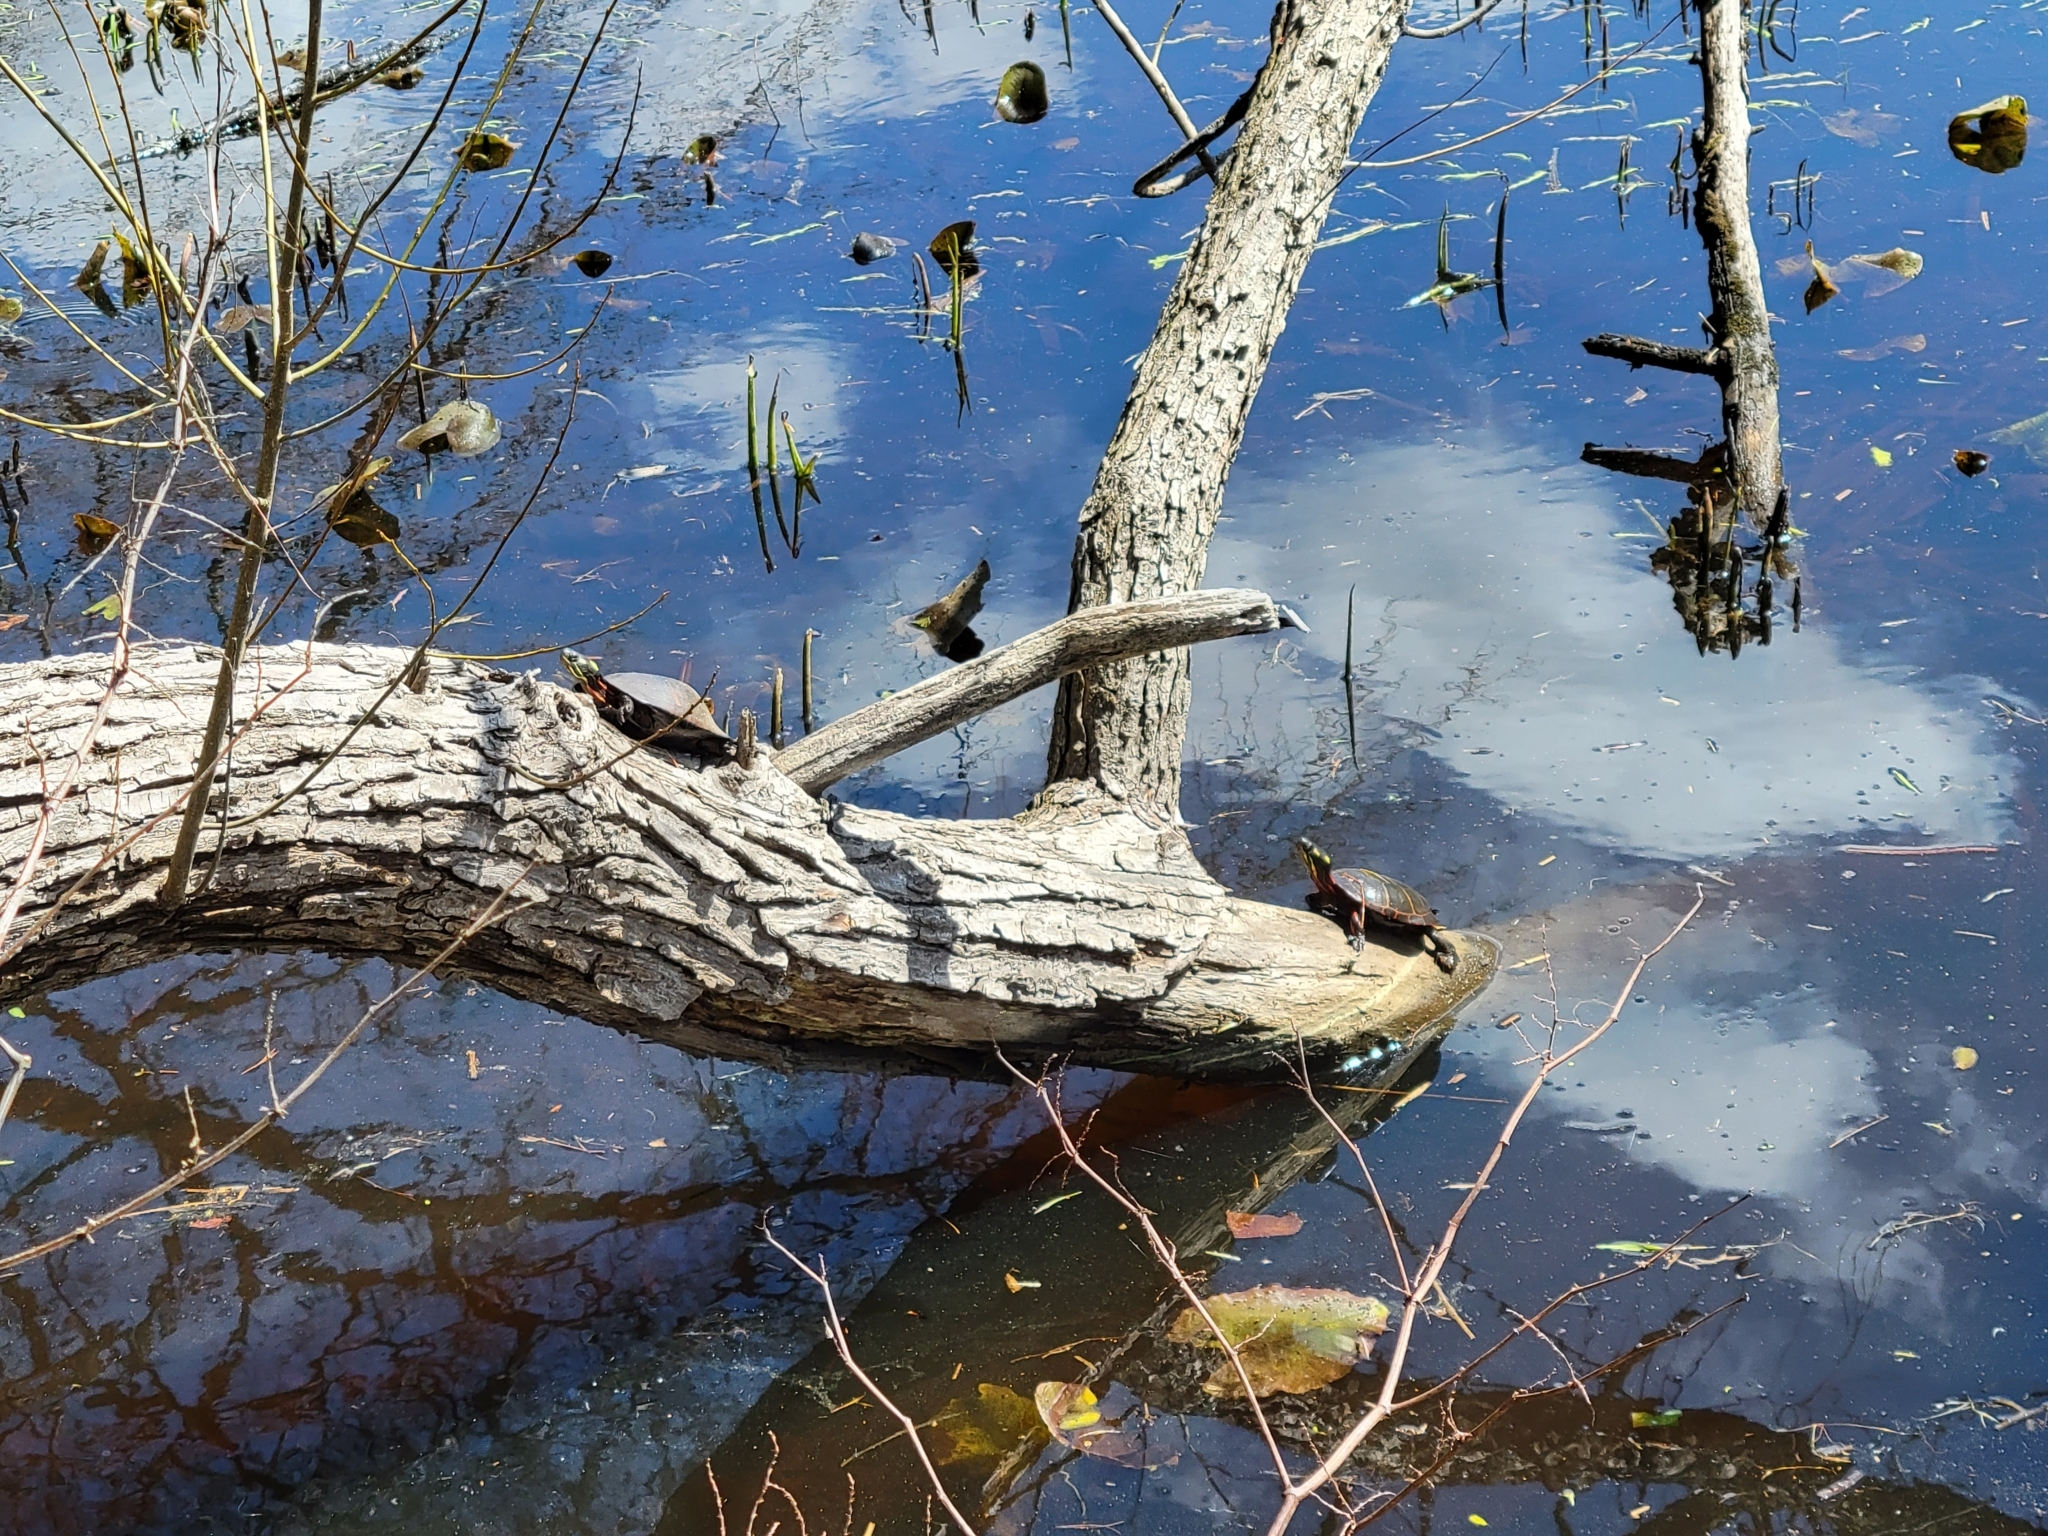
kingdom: Animalia
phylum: Chordata
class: Testudines
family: Emydidae
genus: Chrysemys
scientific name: Chrysemys picta
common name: Painted turtle
